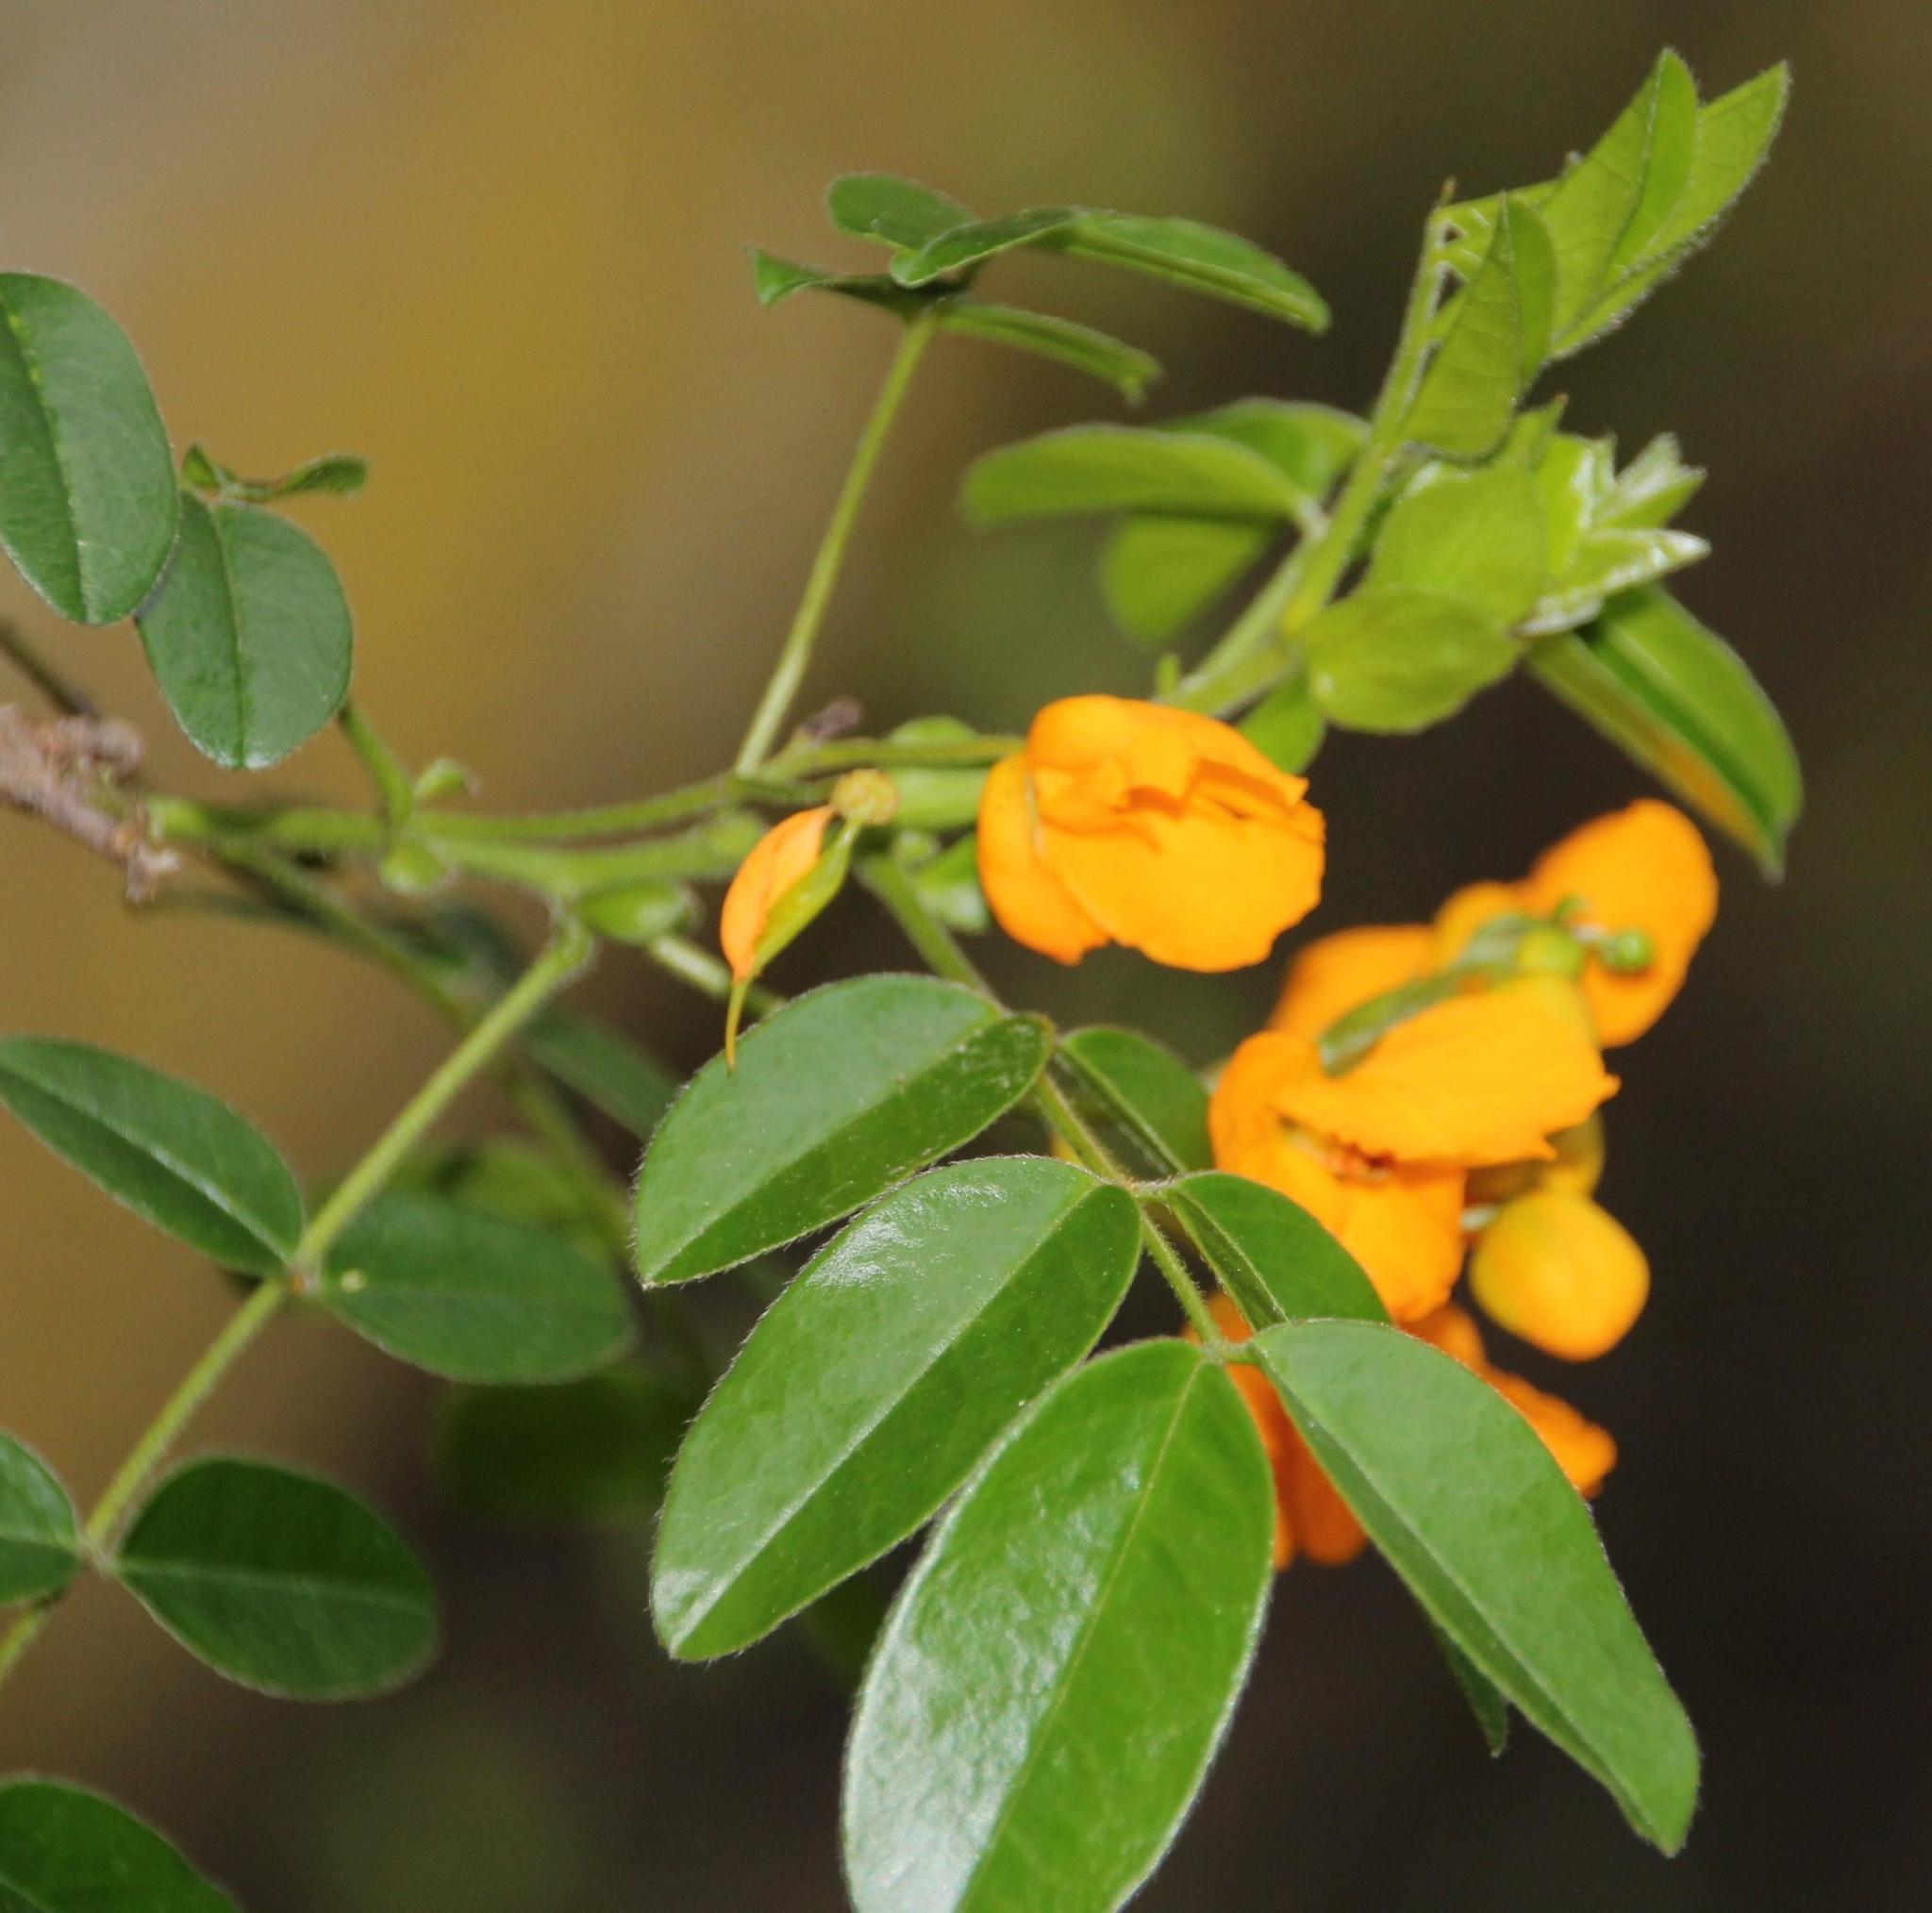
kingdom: Plantae
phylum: Tracheophyta
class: Magnoliopsida
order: Fabales
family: Fabaceae
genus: Senna
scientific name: Senna stipulacea
